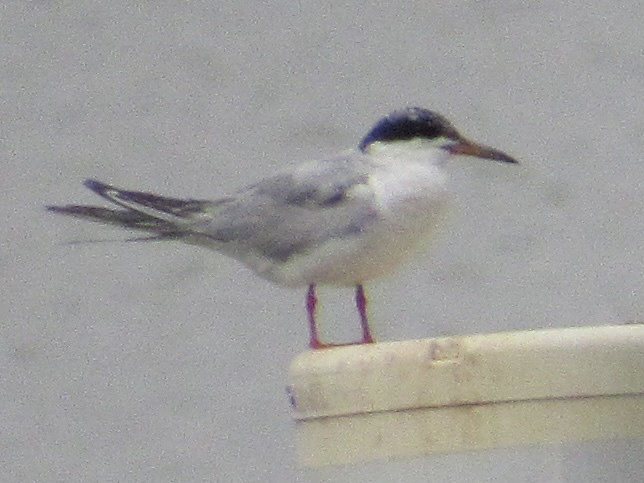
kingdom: Animalia
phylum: Chordata
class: Aves
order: Charadriiformes
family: Laridae
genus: Sterna
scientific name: Sterna forsteri
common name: Forster's tern
